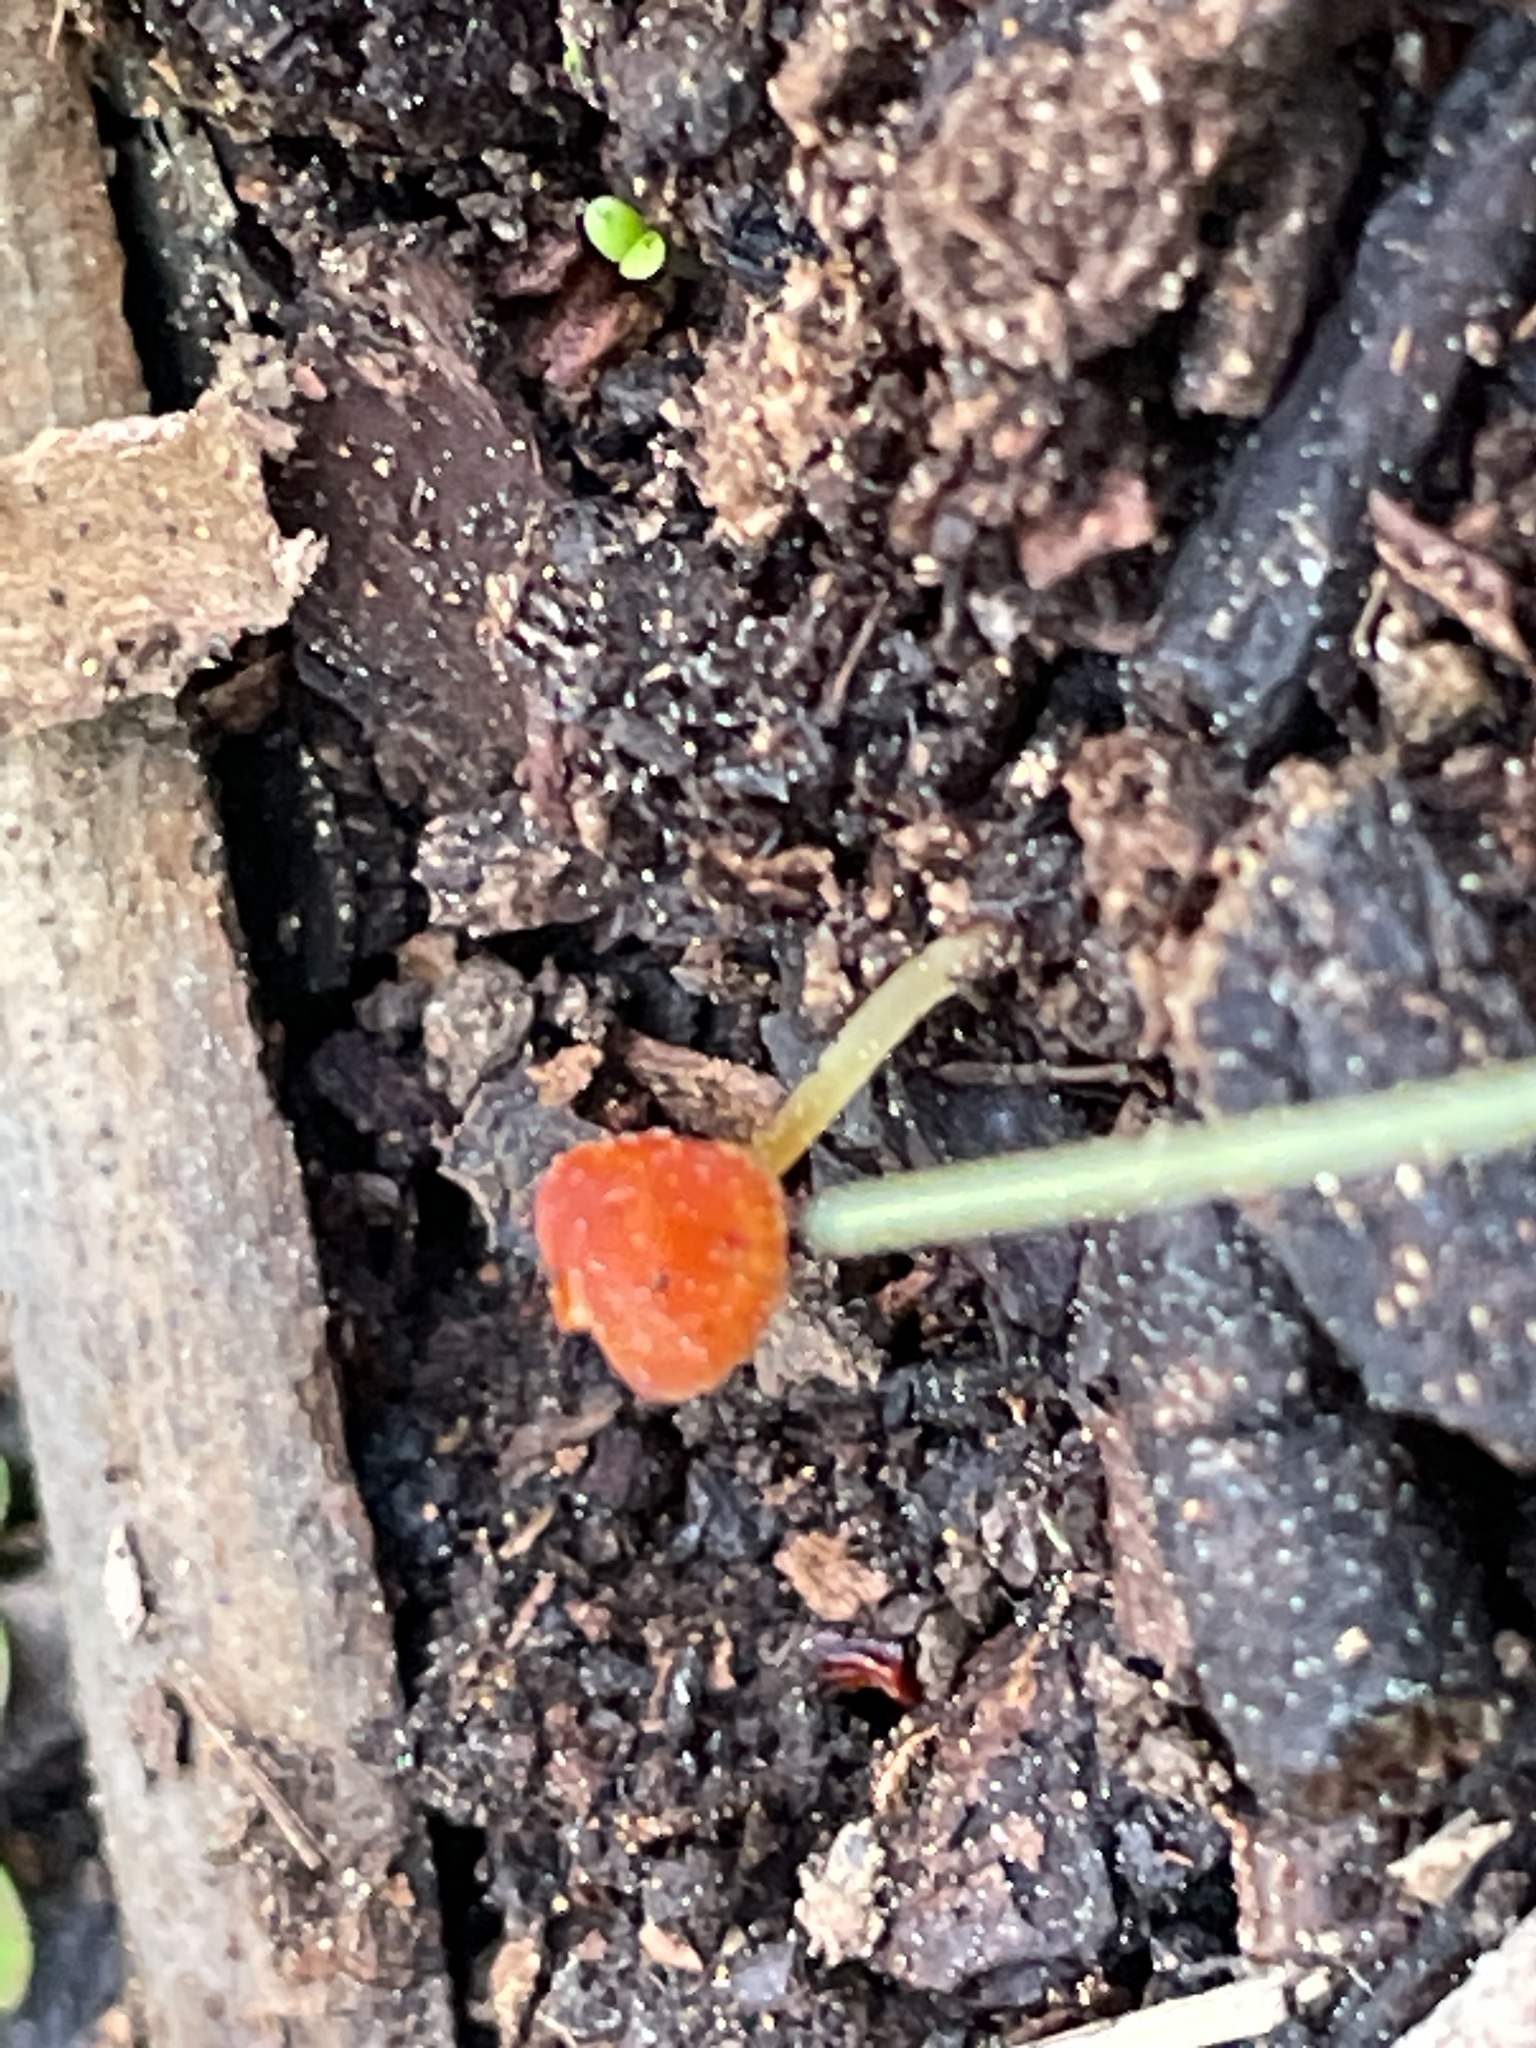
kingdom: Fungi
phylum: Basidiomycota
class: Agaricomycetes
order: Agaricales
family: Mycenaceae
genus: Mycena
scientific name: Mycena acicula
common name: Orange bonnet
